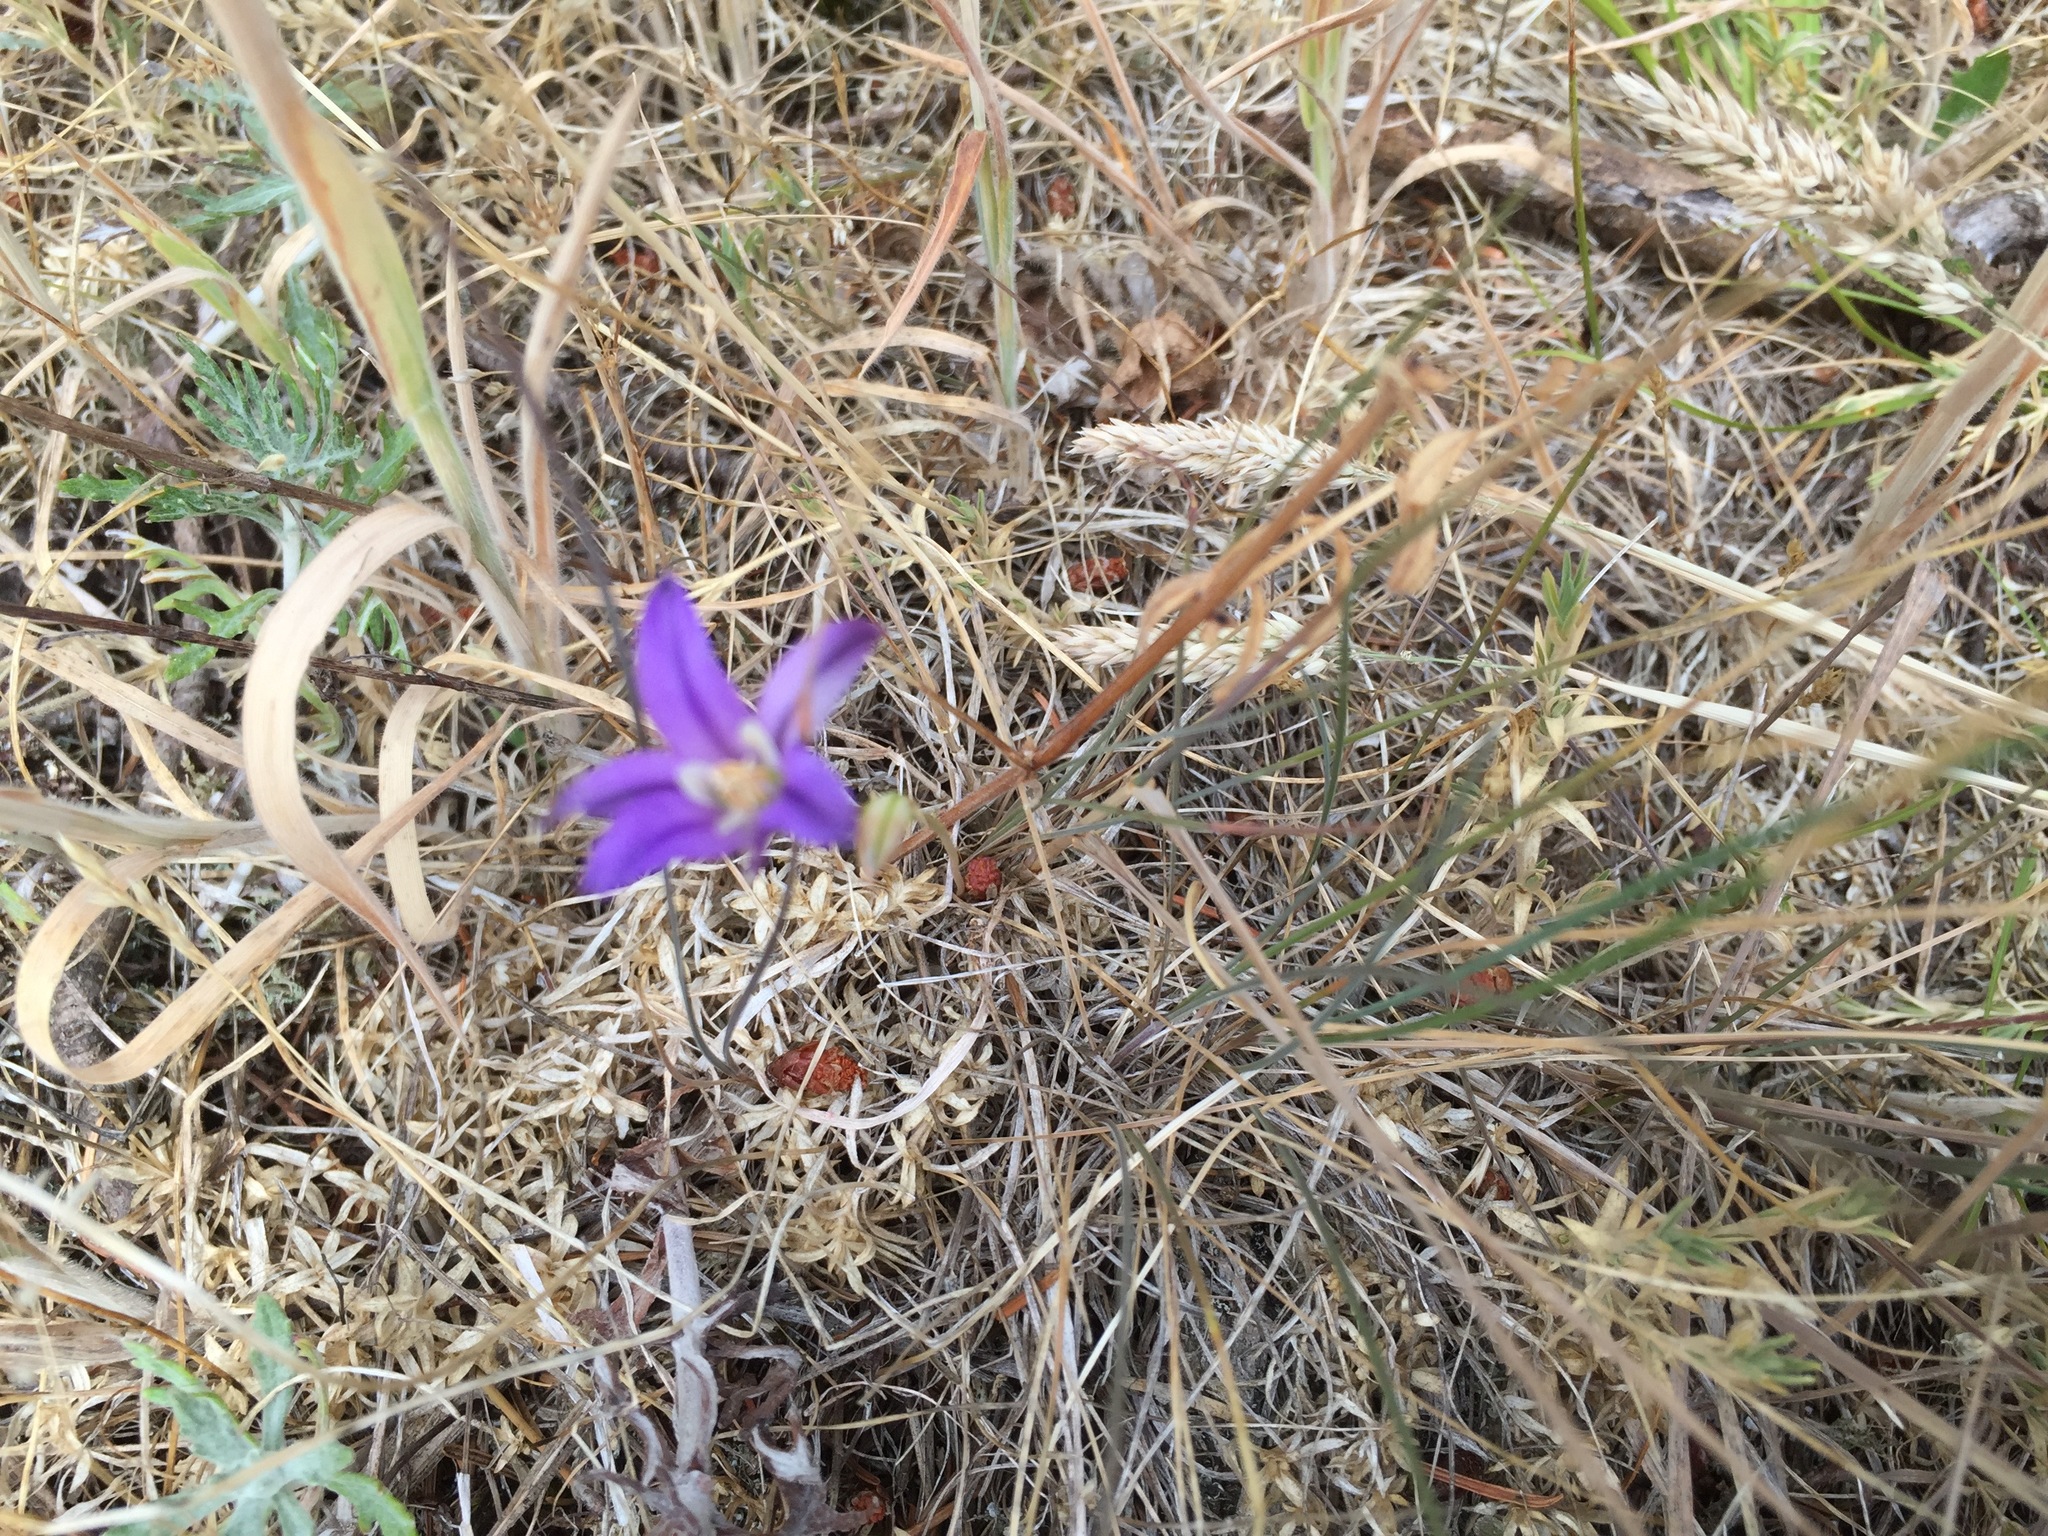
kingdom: Plantae
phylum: Tracheophyta
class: Liliopsida
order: Asparagales
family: Asparagaceae
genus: Brodiaea
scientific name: Brodiaea coronaria
